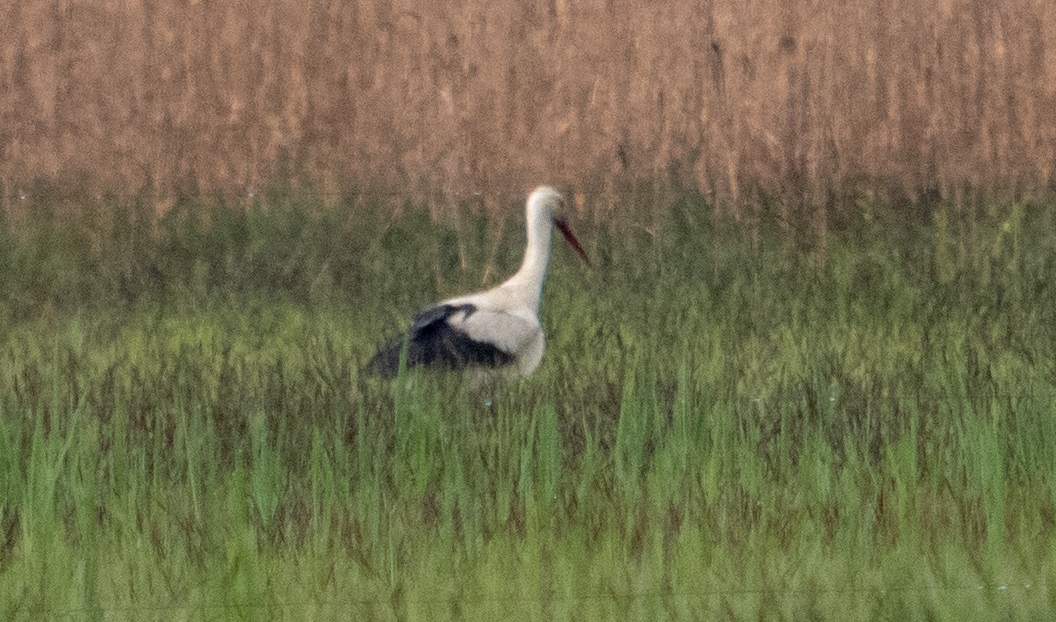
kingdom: Animalia
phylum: Chordata
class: Aves
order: Ciconiiformes
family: Ciconiidae
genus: Ciconia
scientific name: Ciconia ciconia
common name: White stork
